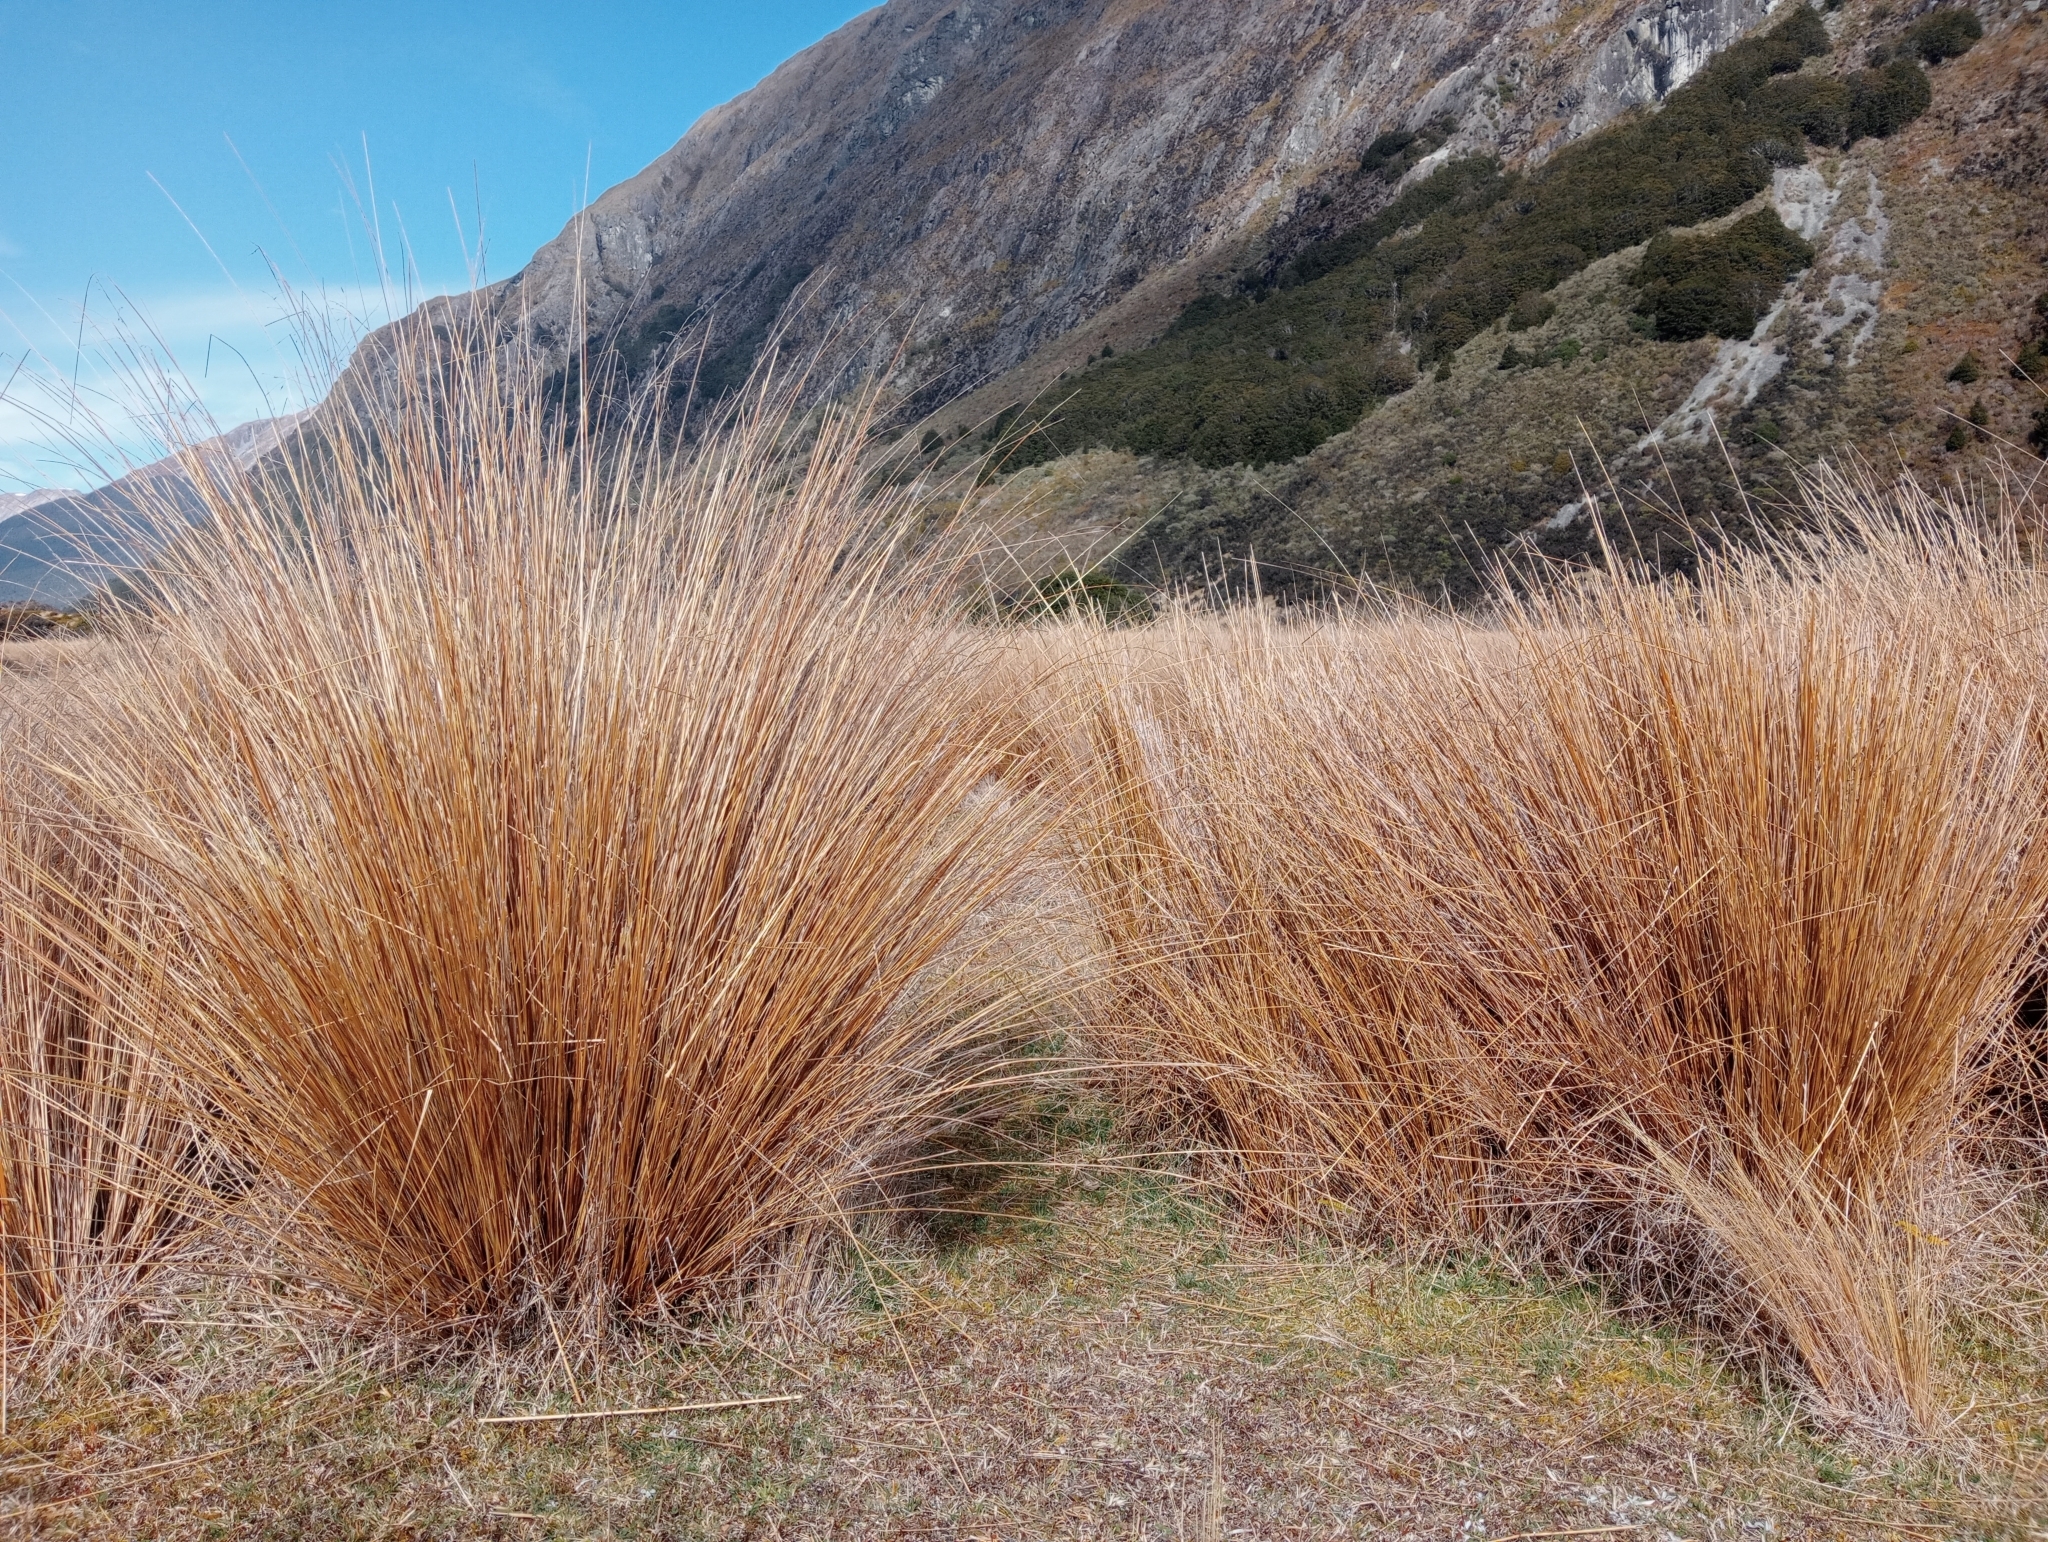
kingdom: Plantae
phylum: Tracheophyta
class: Liliopsida
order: Poales
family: Poaceae
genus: Chionochloa
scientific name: Chionochloa rubra
